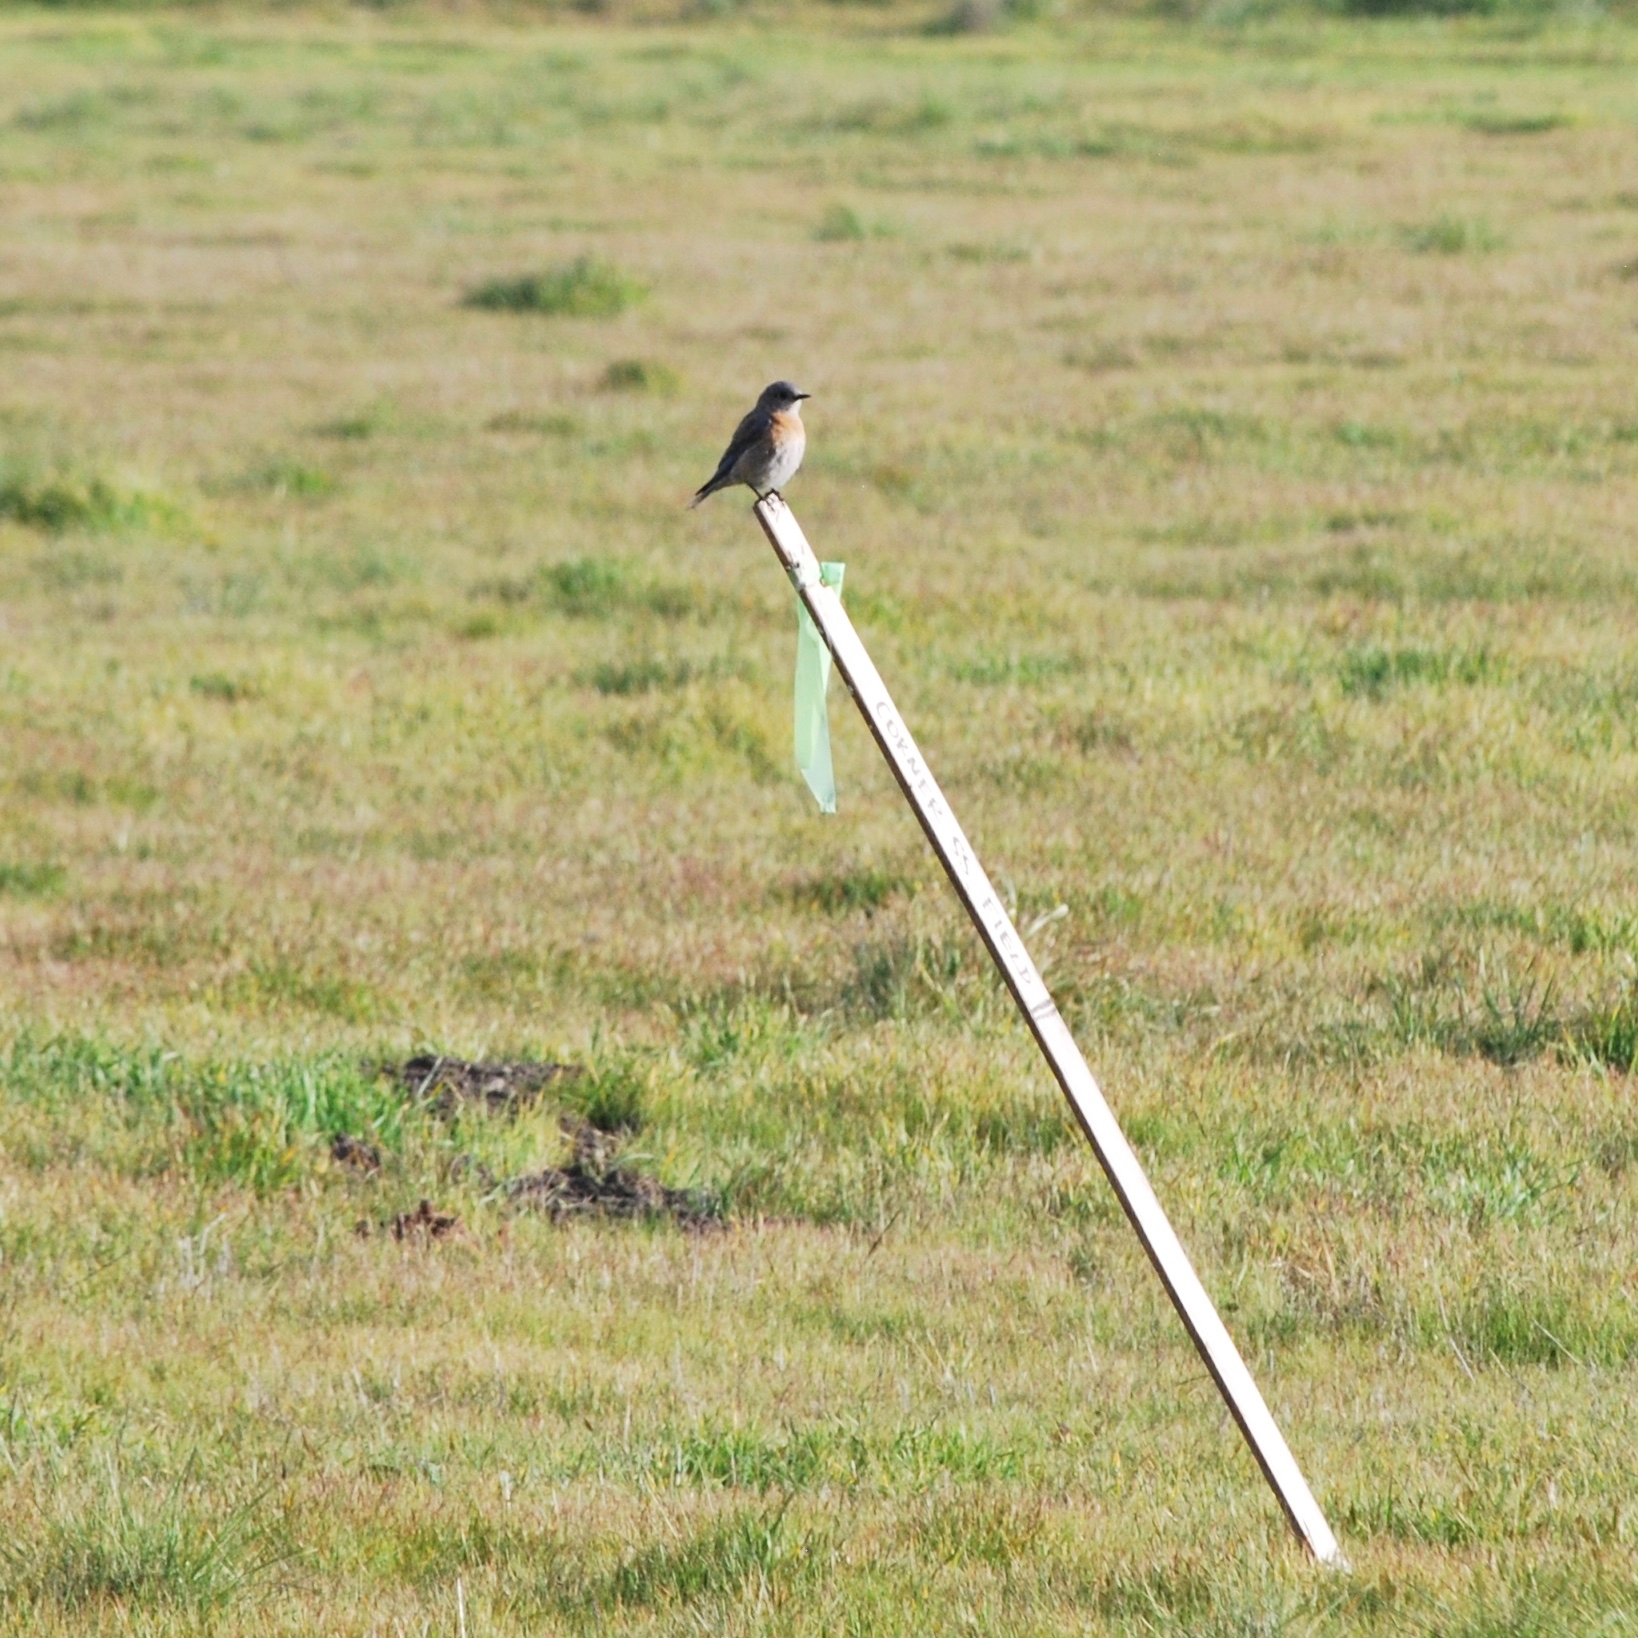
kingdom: Animalia
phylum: Chordata
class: Aves
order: Passeriformes
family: Turdidae
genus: Sialia
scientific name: Sialia mexicana
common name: Western bluebird
